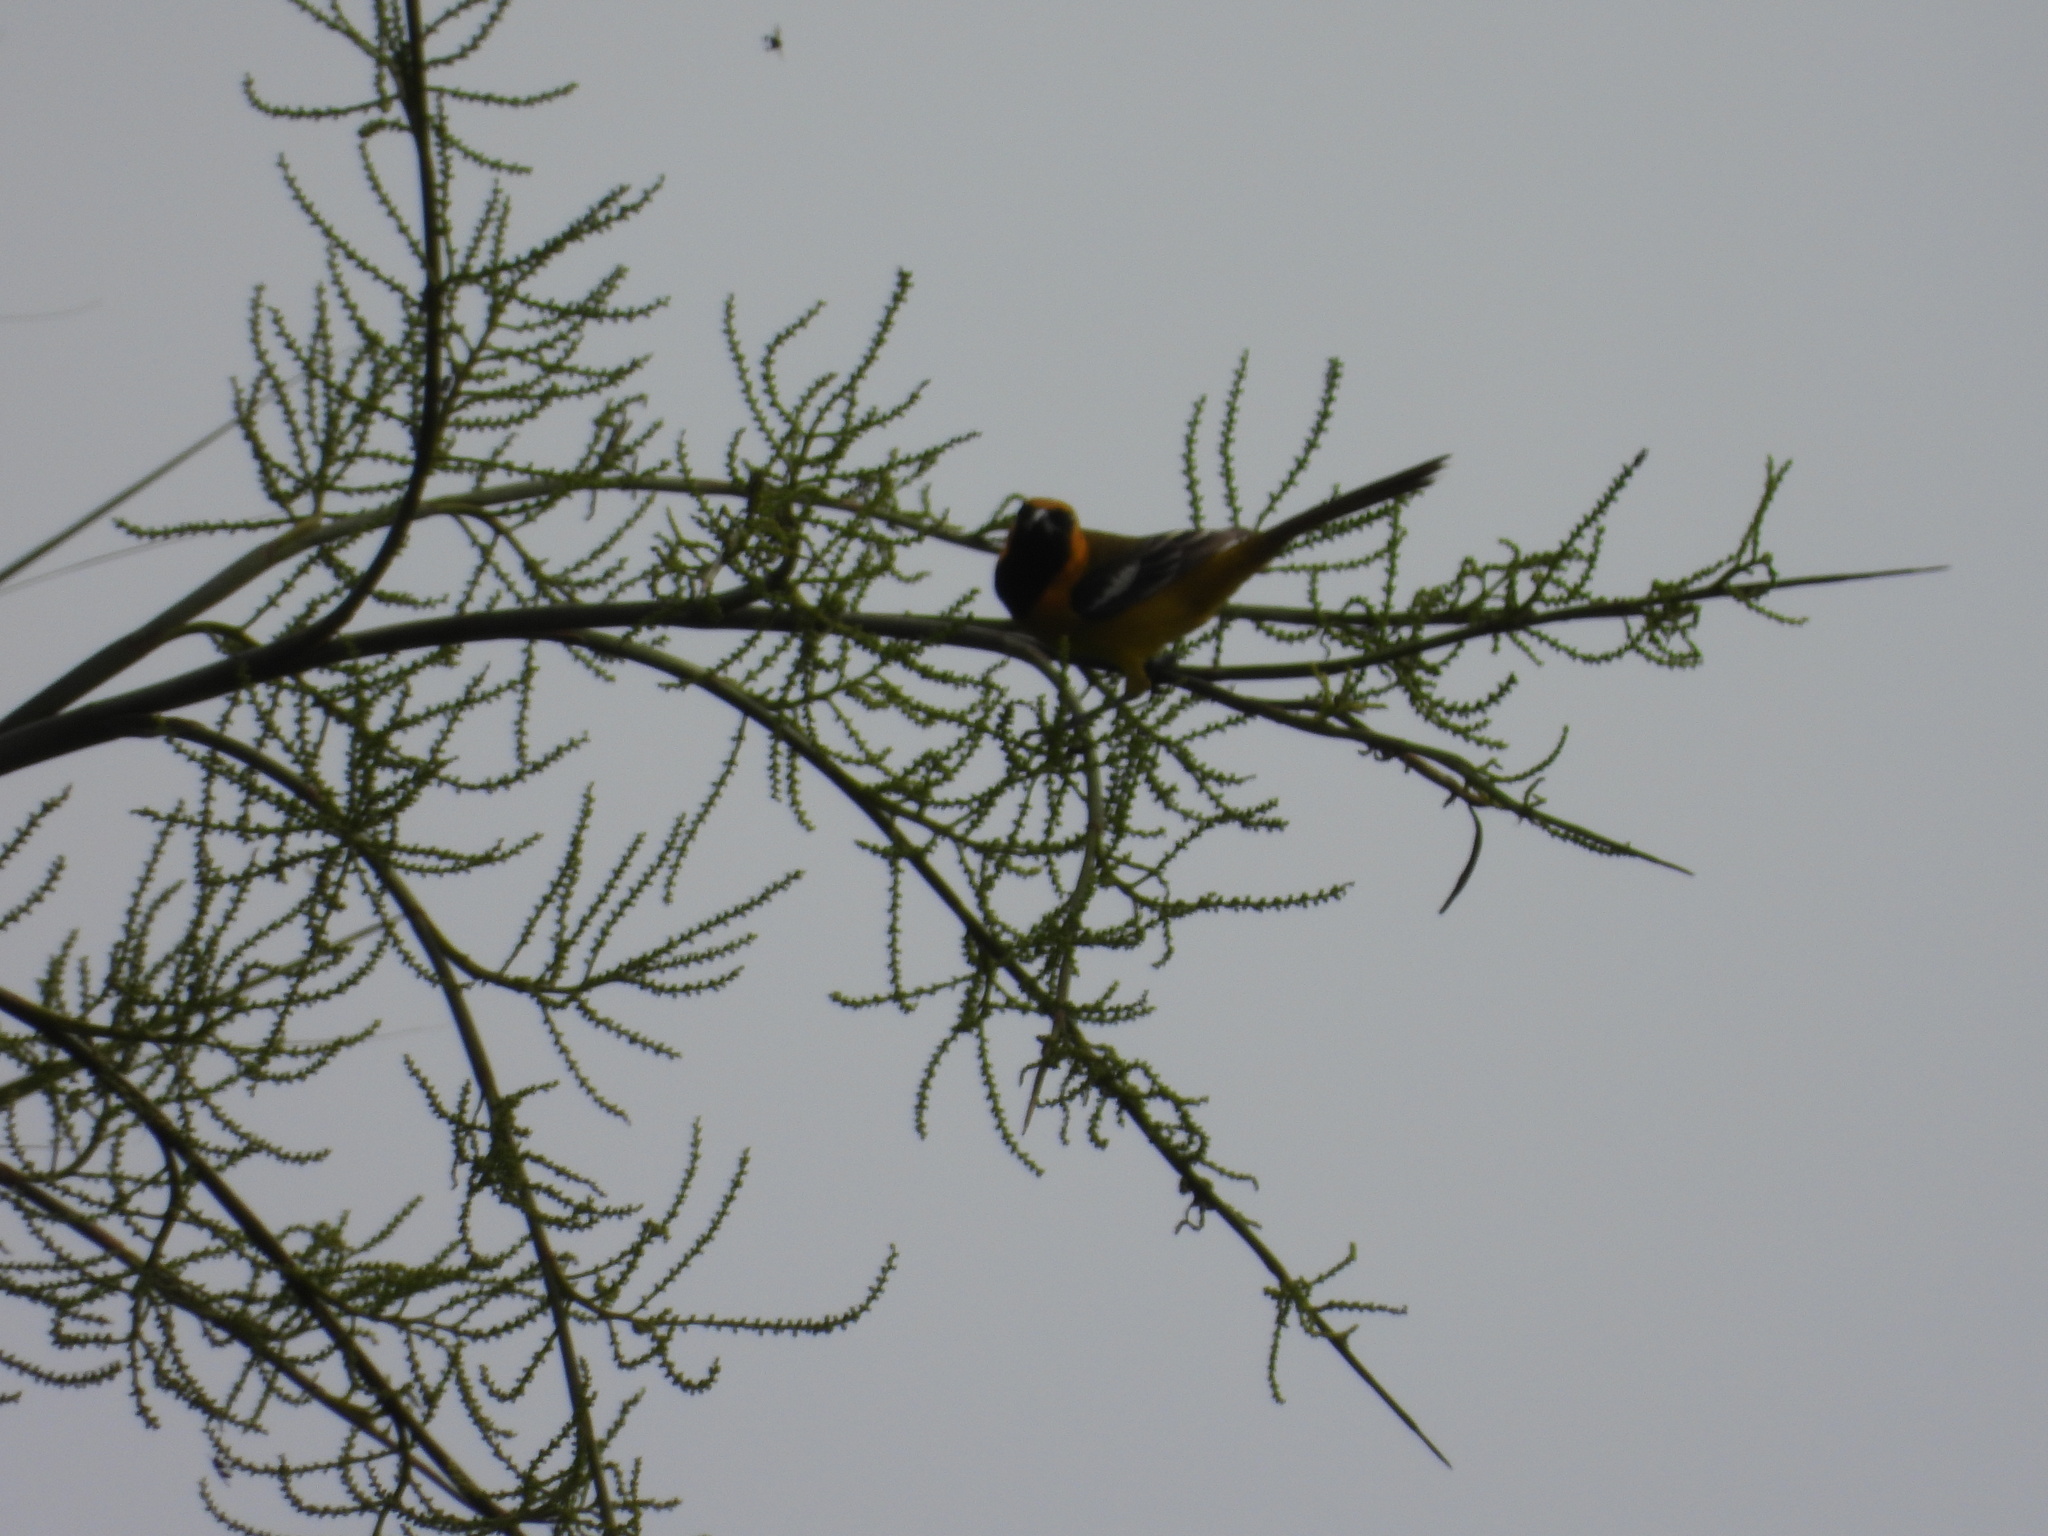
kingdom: Animalia
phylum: Chordata
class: Aves
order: Passeriformes
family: Icteridae
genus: Icterus
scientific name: Icterus cucullatus
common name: Hooded oriole
